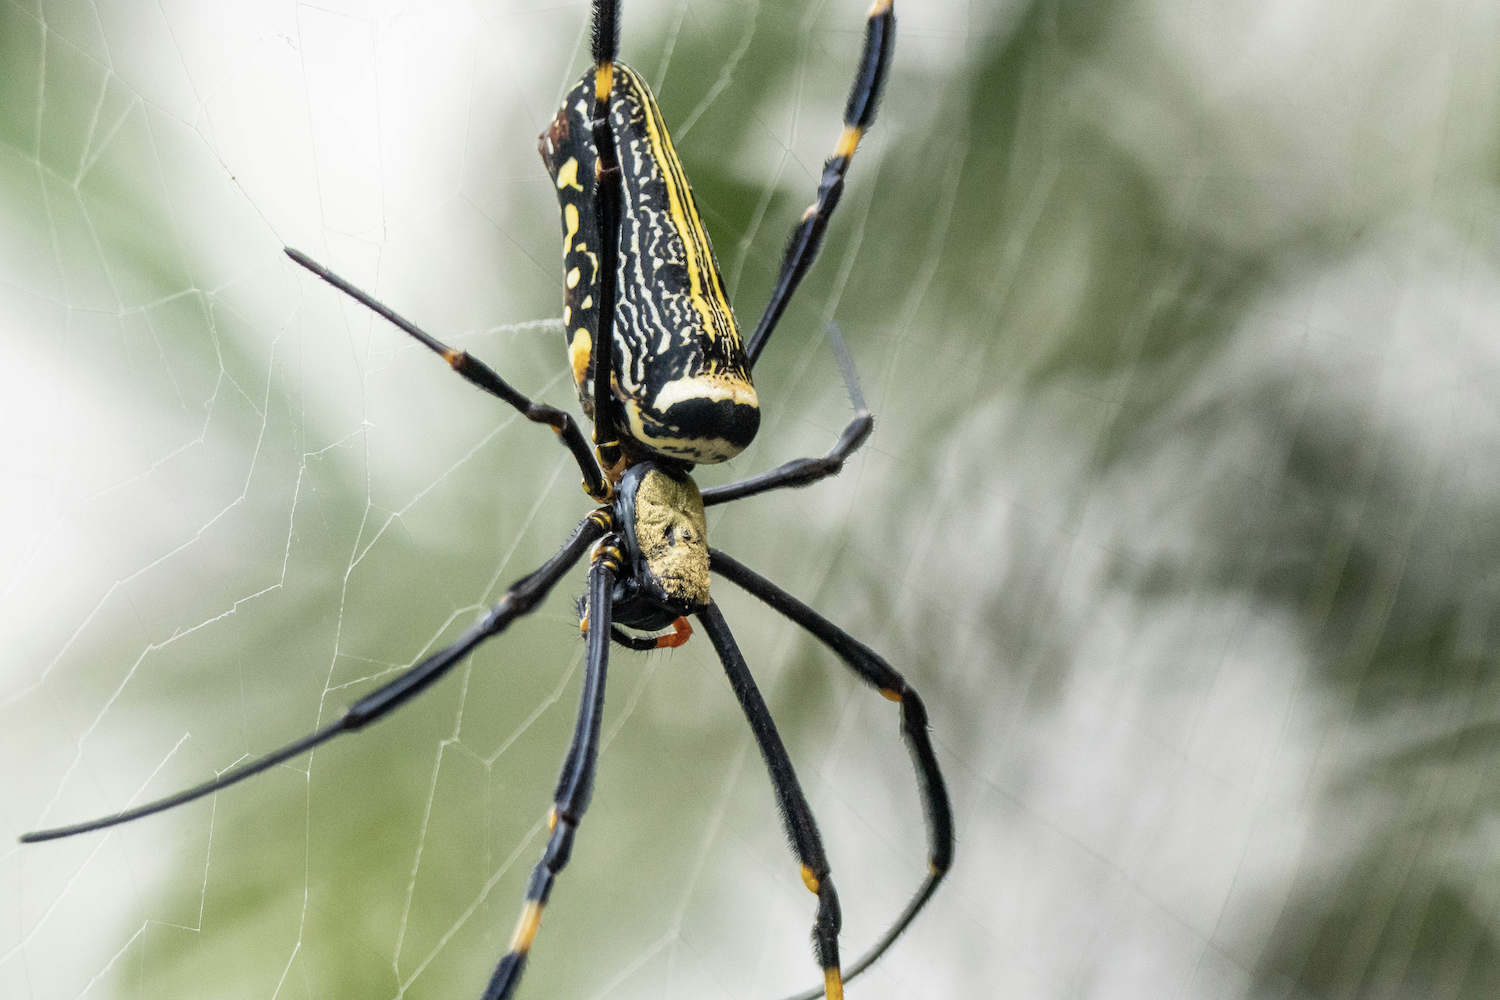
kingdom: Animalia
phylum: Arthropoda
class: Arachnida
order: Araneae
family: Araneidae
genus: Nephila
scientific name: Nephila pilipes
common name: Giant golden orb weaver
